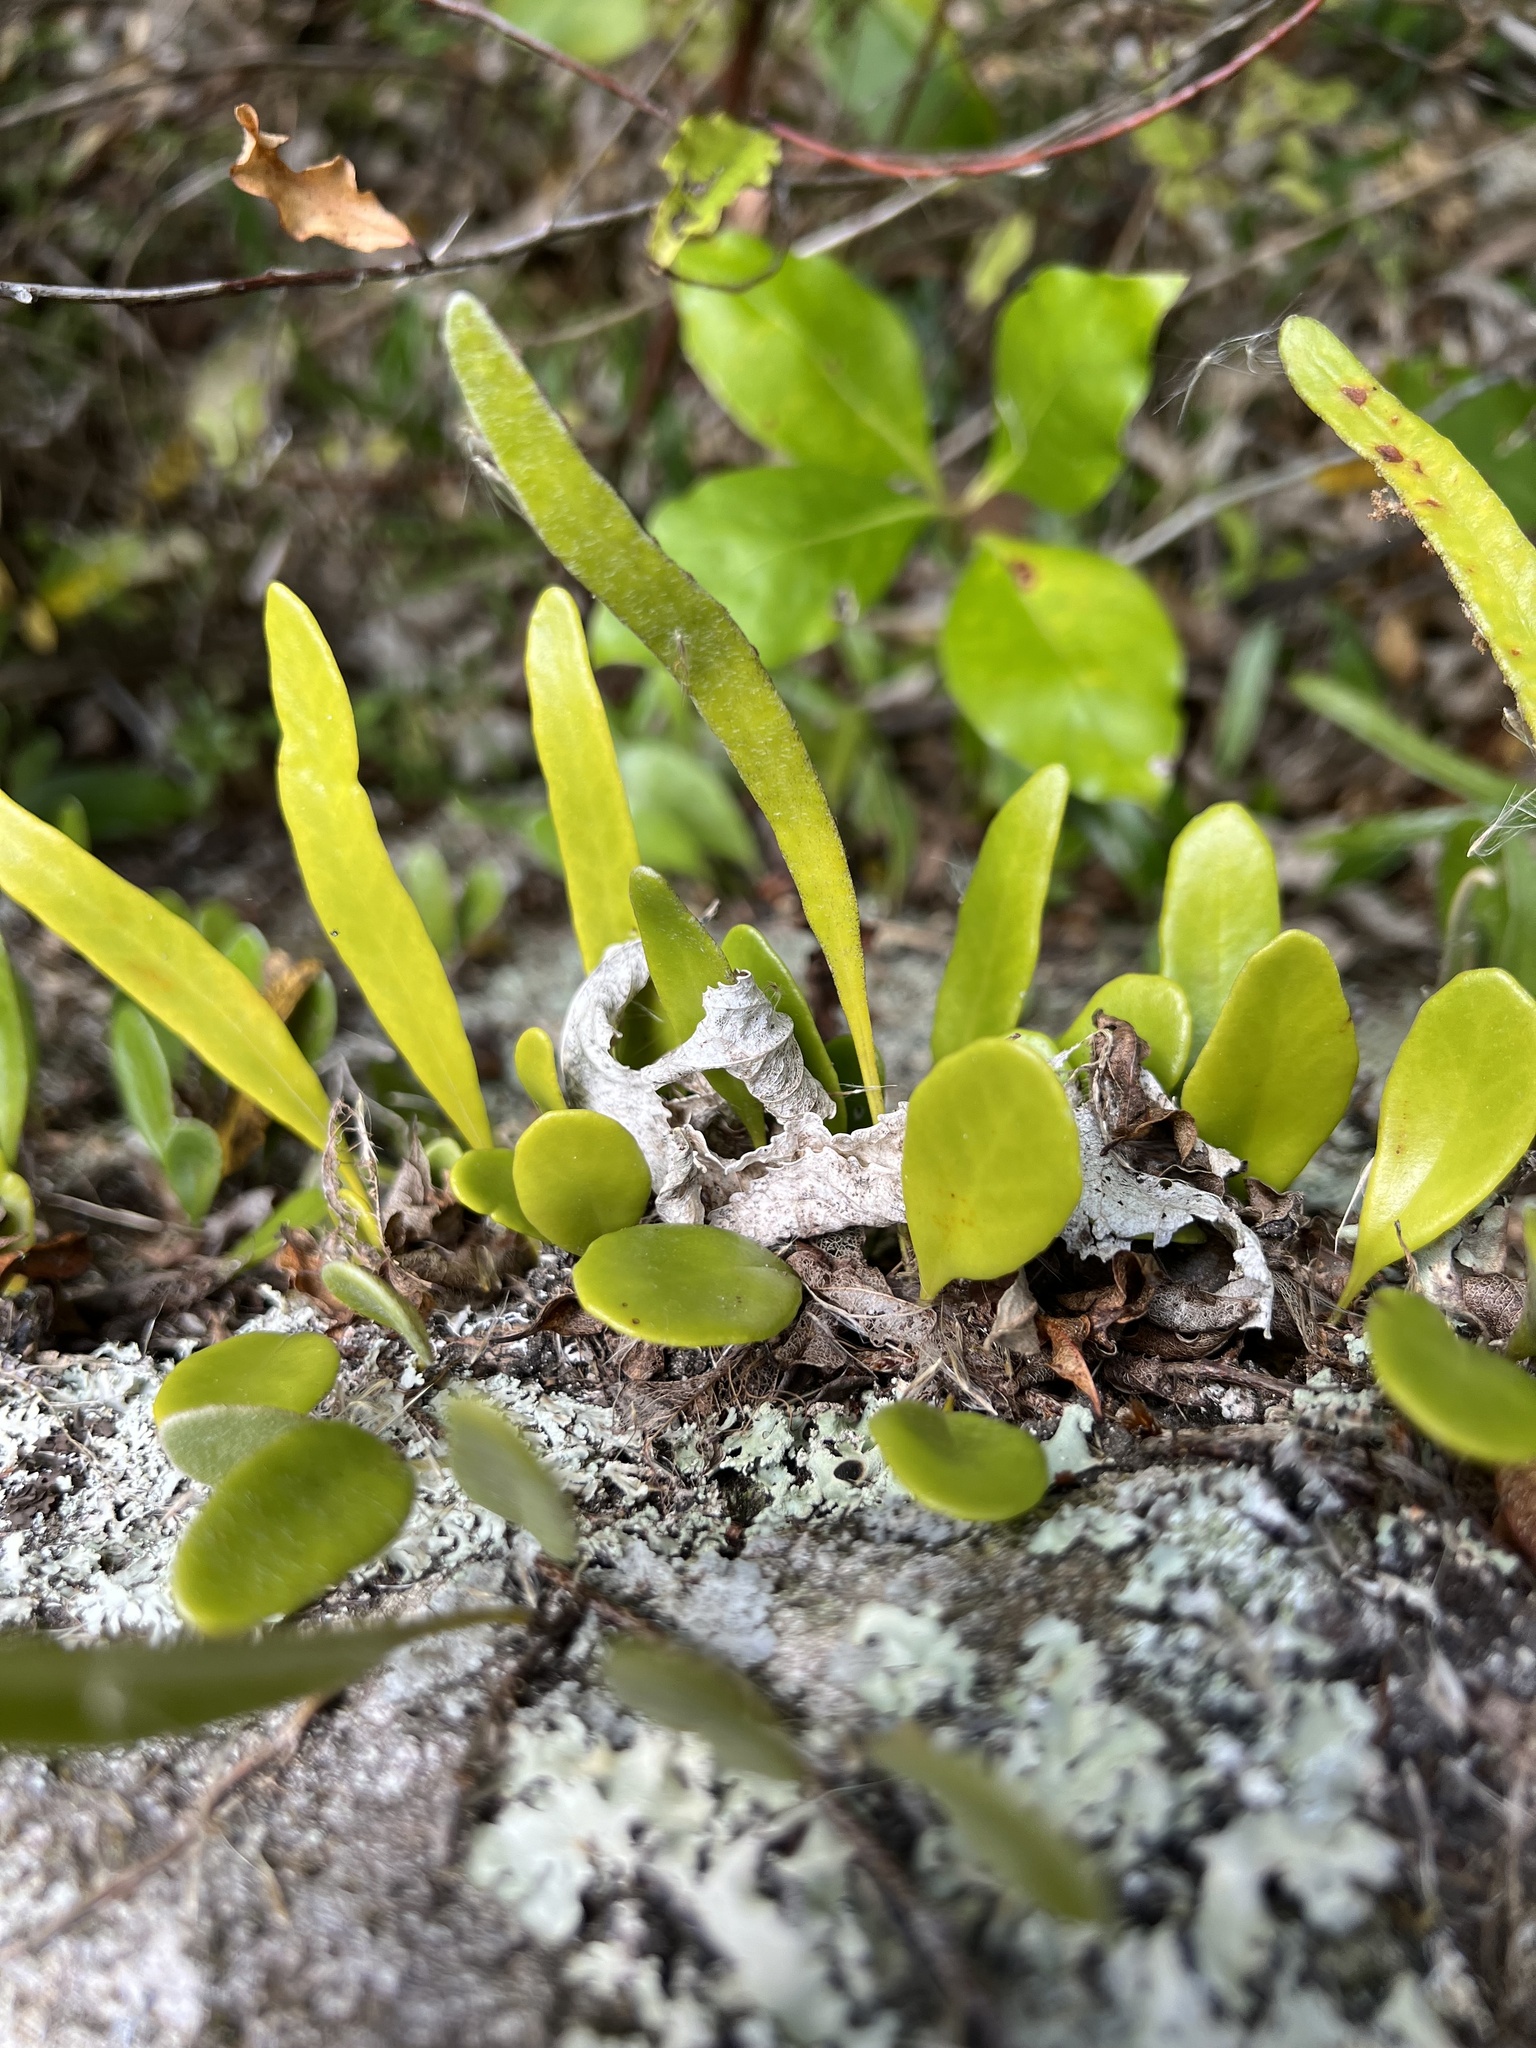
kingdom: Plantae
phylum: Tracheophyta
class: Polypodiopsida
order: Polypodiales
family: Polypodiaceae
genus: Pyrrosia
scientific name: Pyrrosia eleagnifolia
